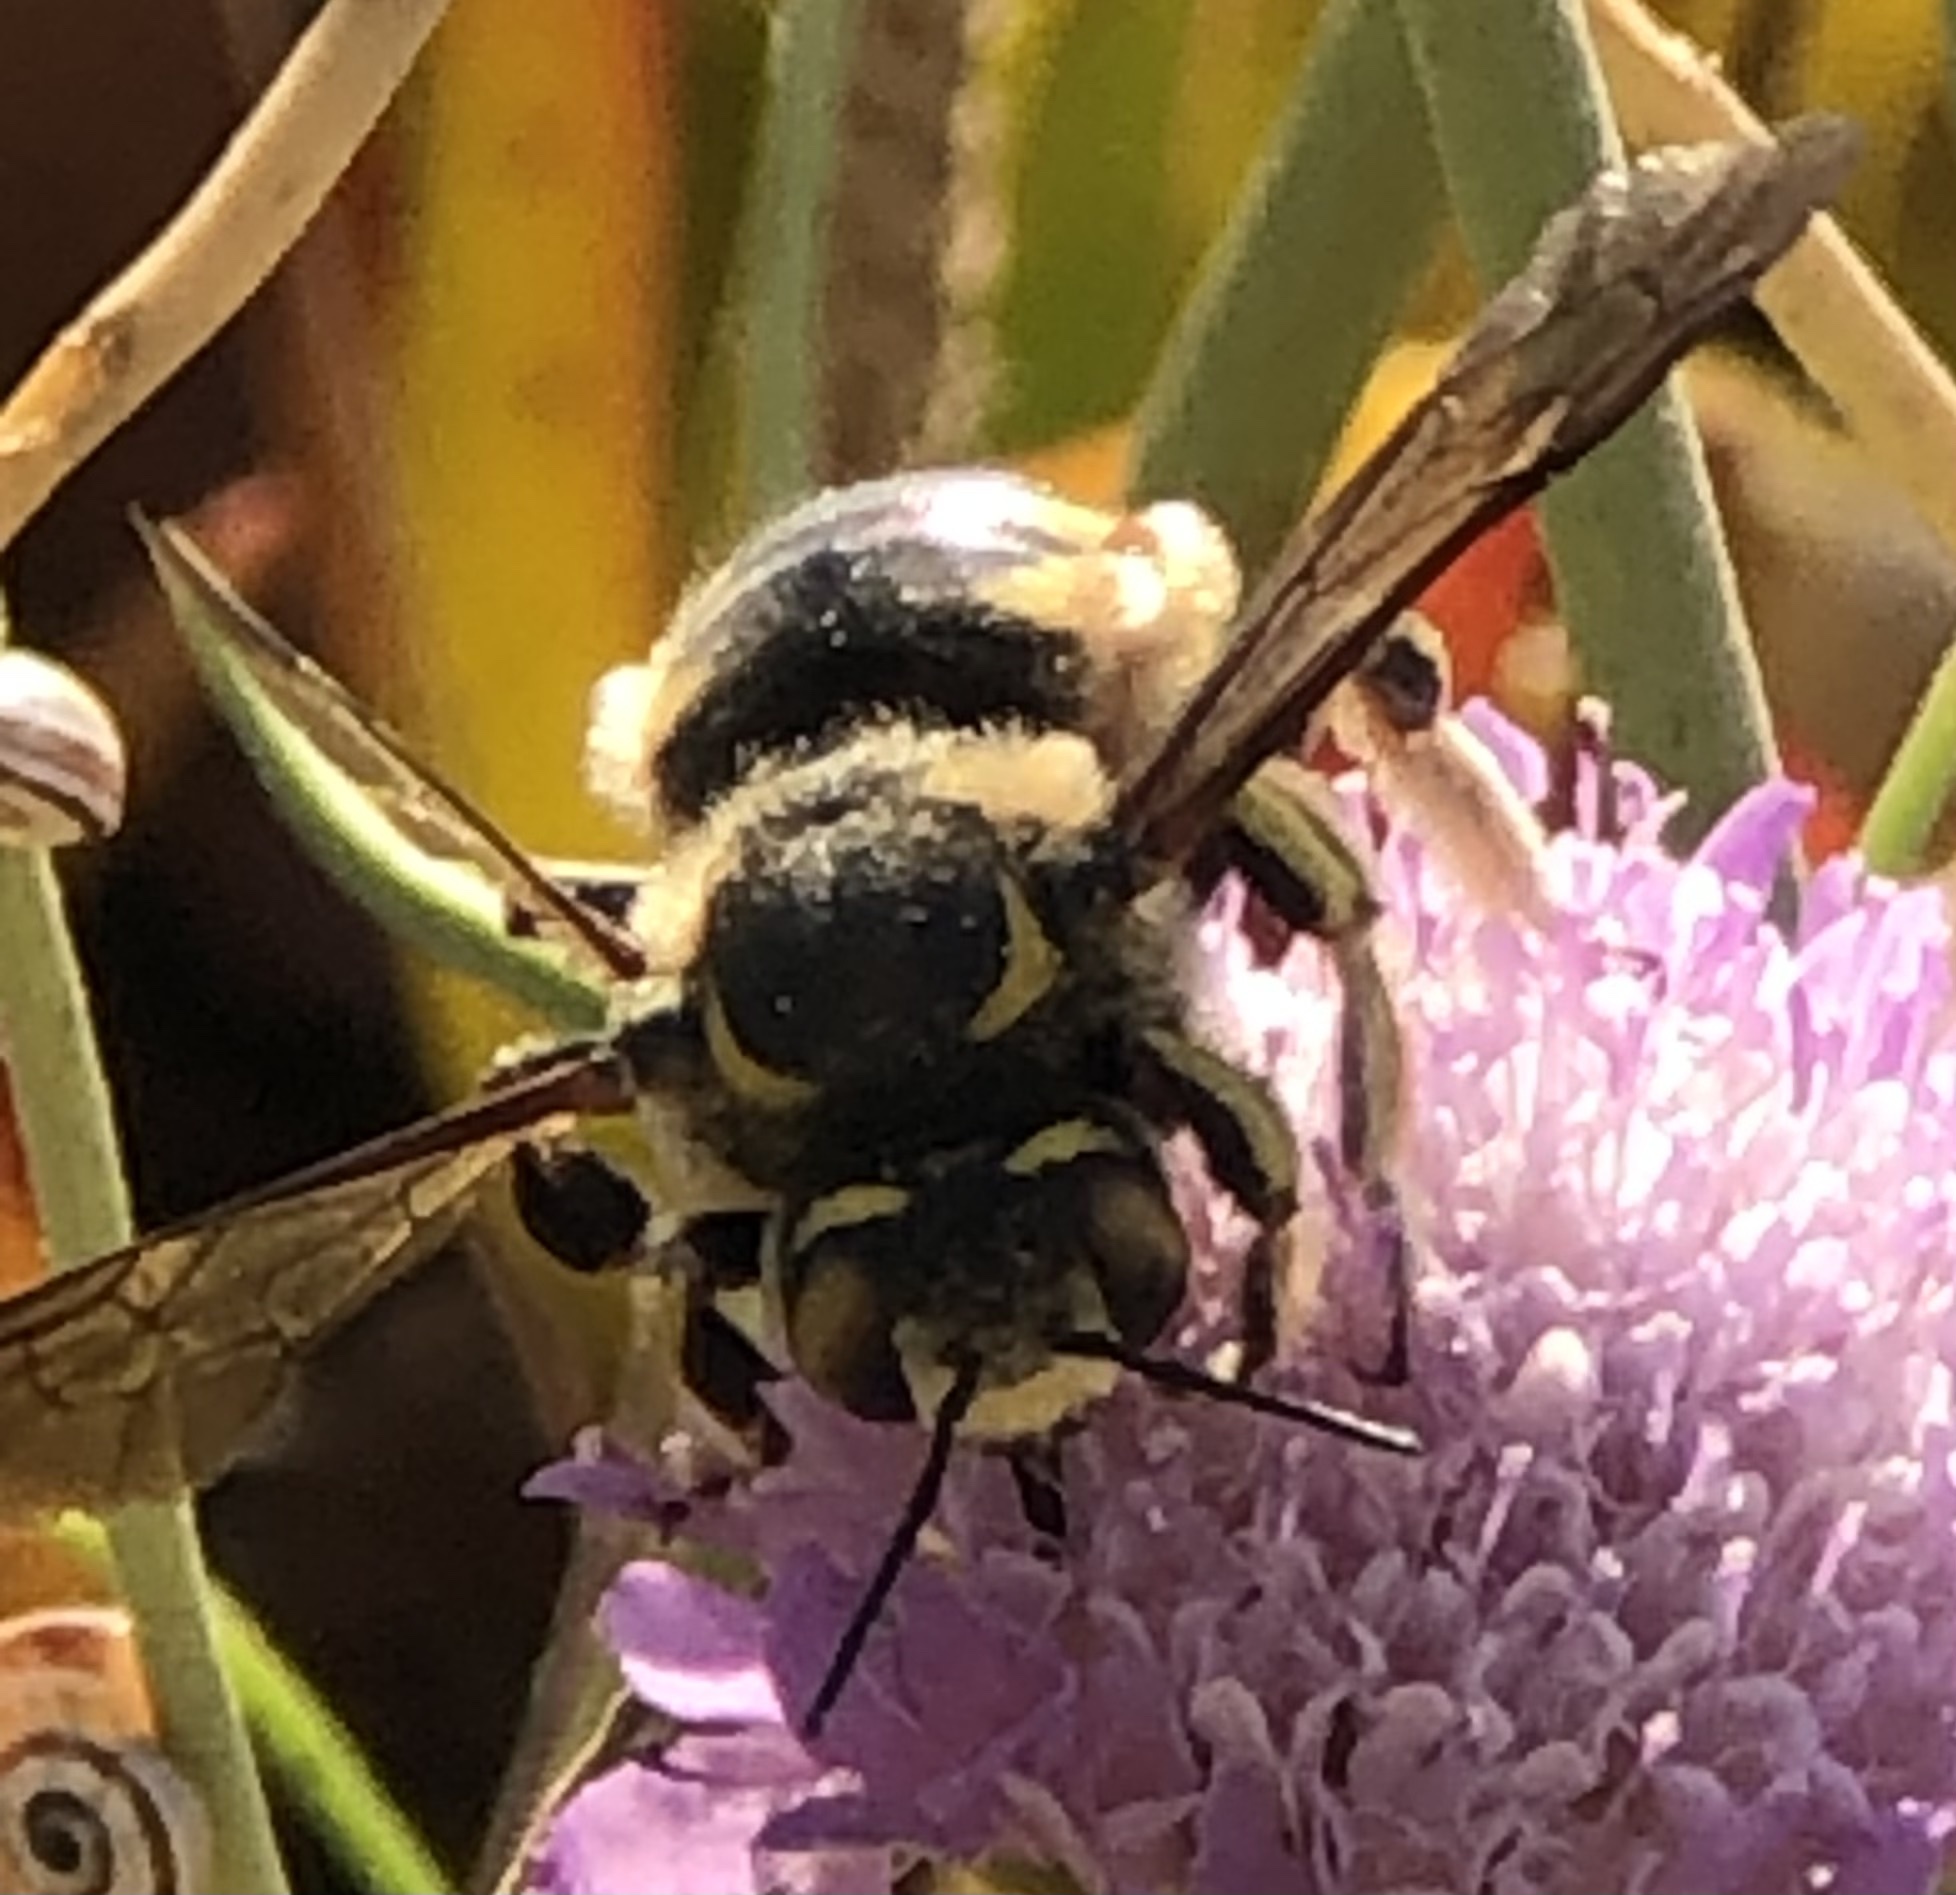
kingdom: Animalia
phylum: Arthropoda
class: Insecta
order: Hymenoptera
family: Megachilidae
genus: Anthidium
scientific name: Anthidium florentinum
